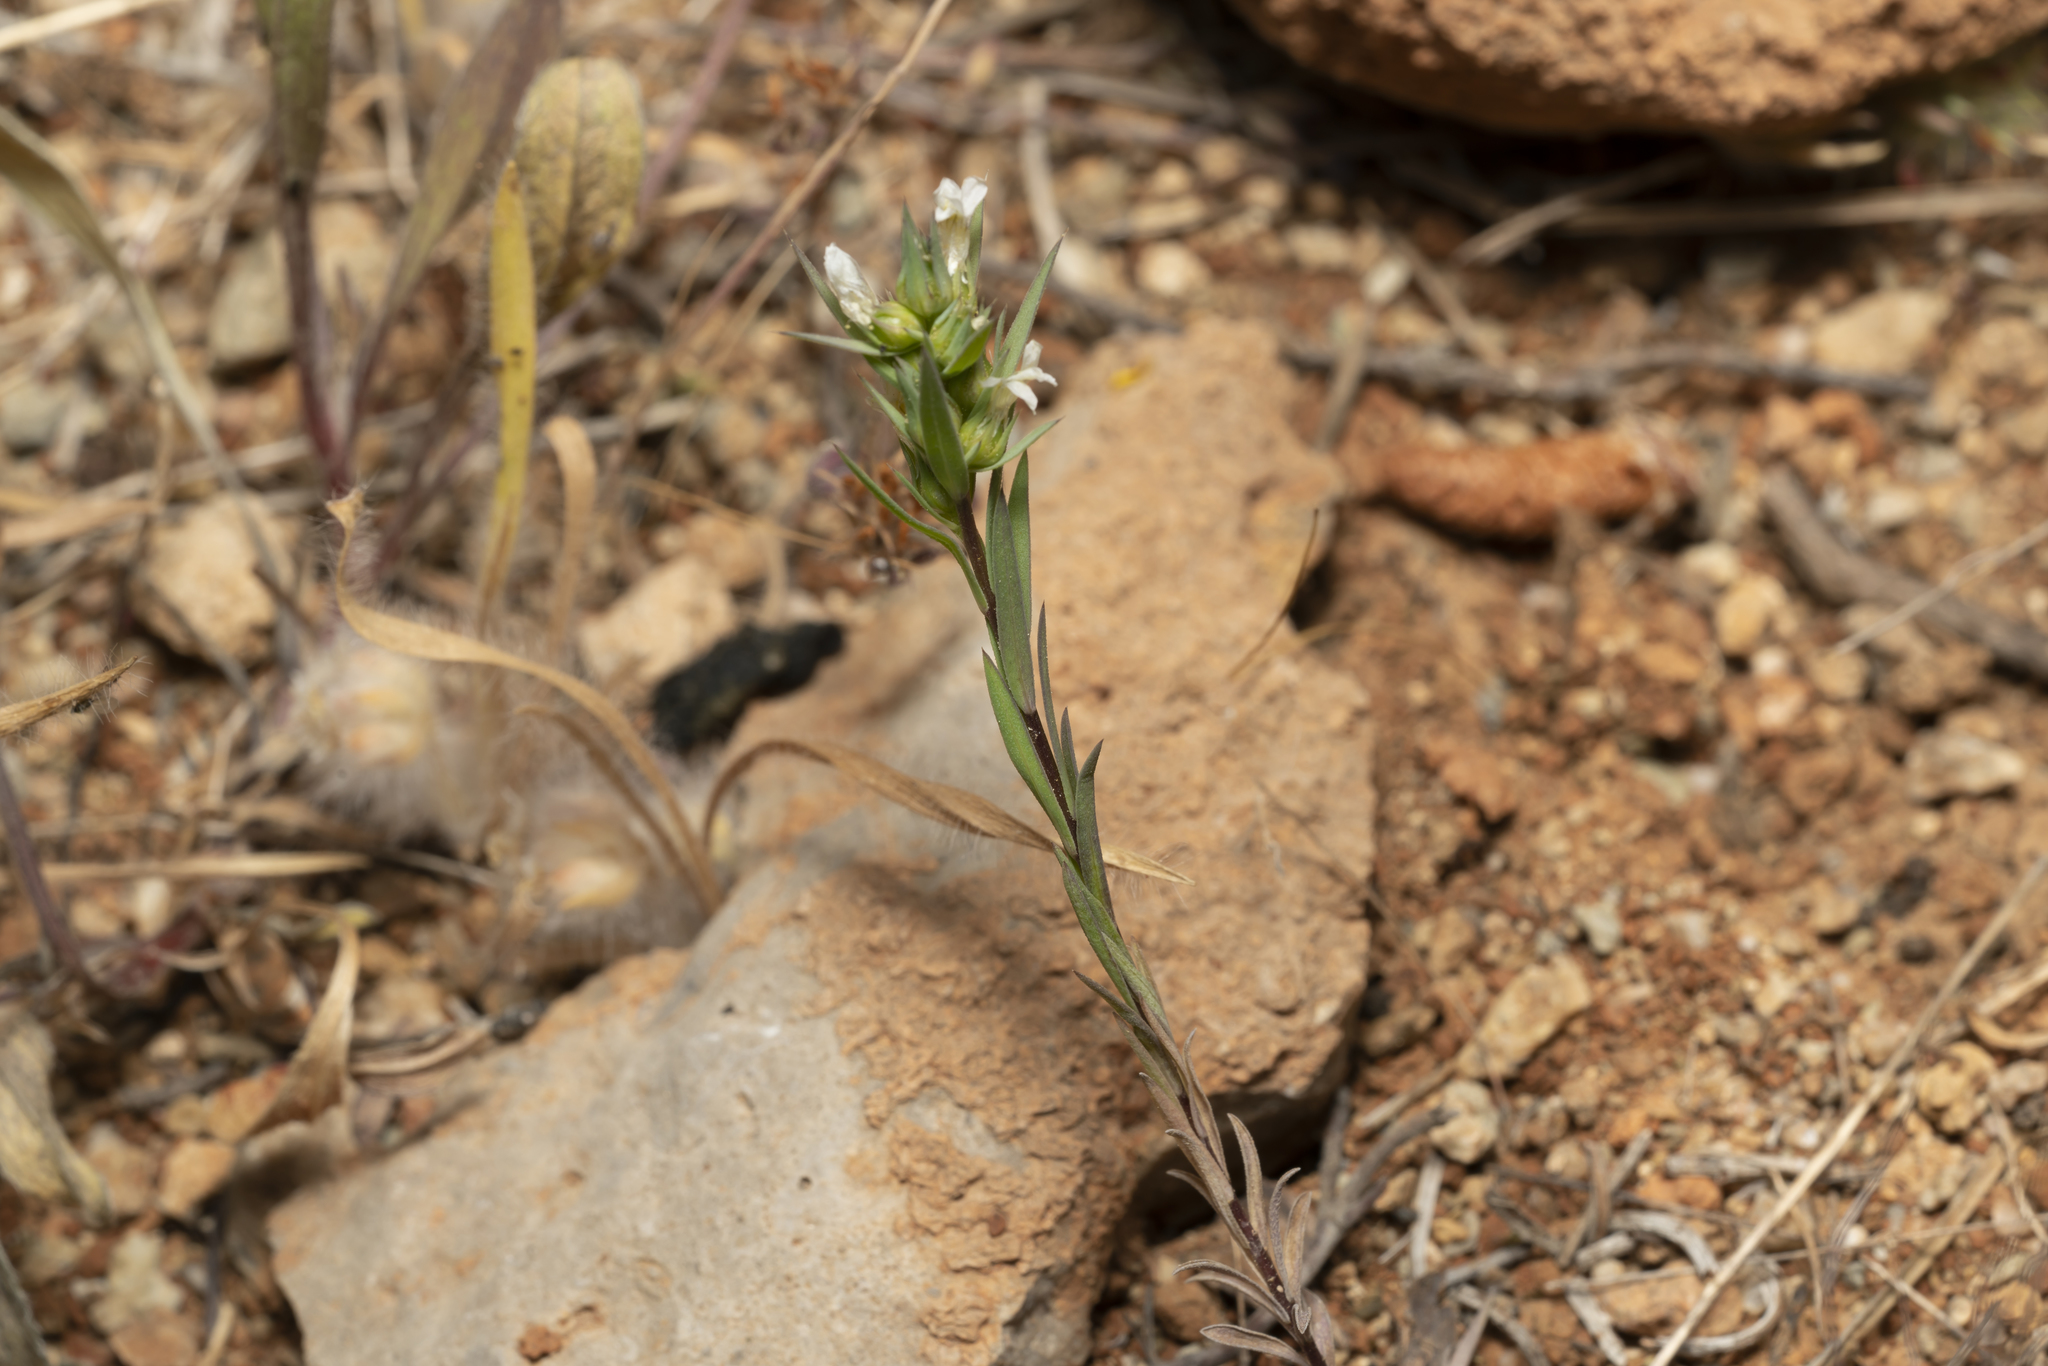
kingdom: Plantae
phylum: Tracheophyta
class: Magnoliopsida
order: Malpighiales
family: Linaceae
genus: Linum
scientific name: Linum strictum
